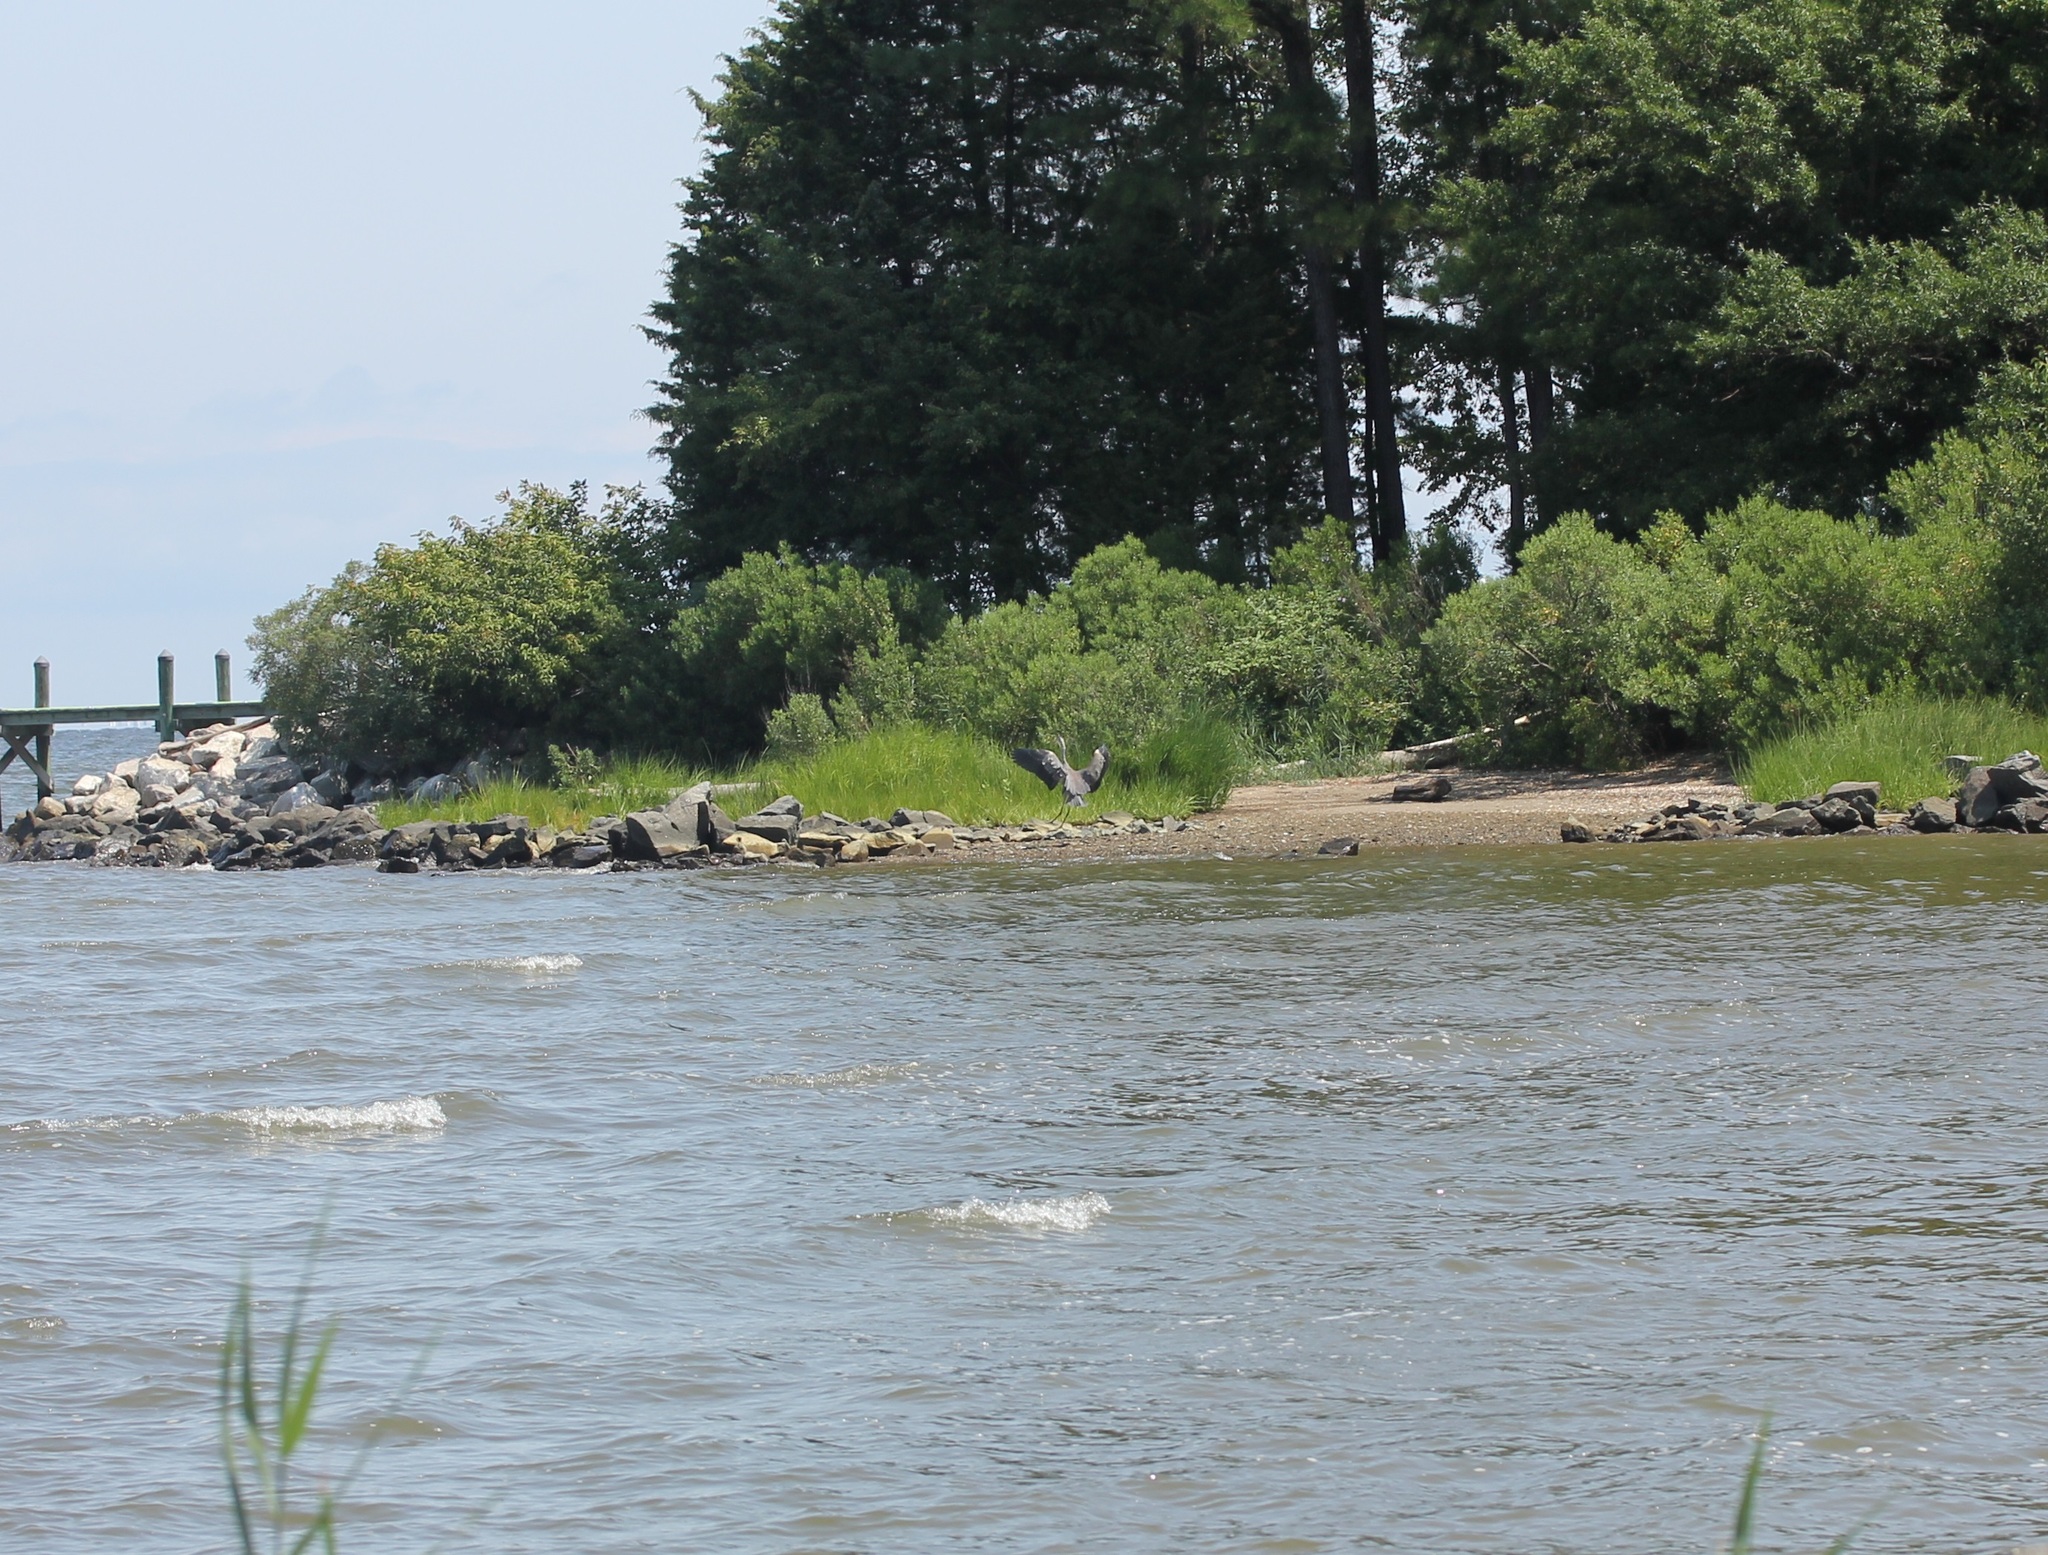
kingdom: Animalia
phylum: Chordata
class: Aves
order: Pelecaniformes
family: Ardeidae
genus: Ardea
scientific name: Ardea herodias
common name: Great blue heron
